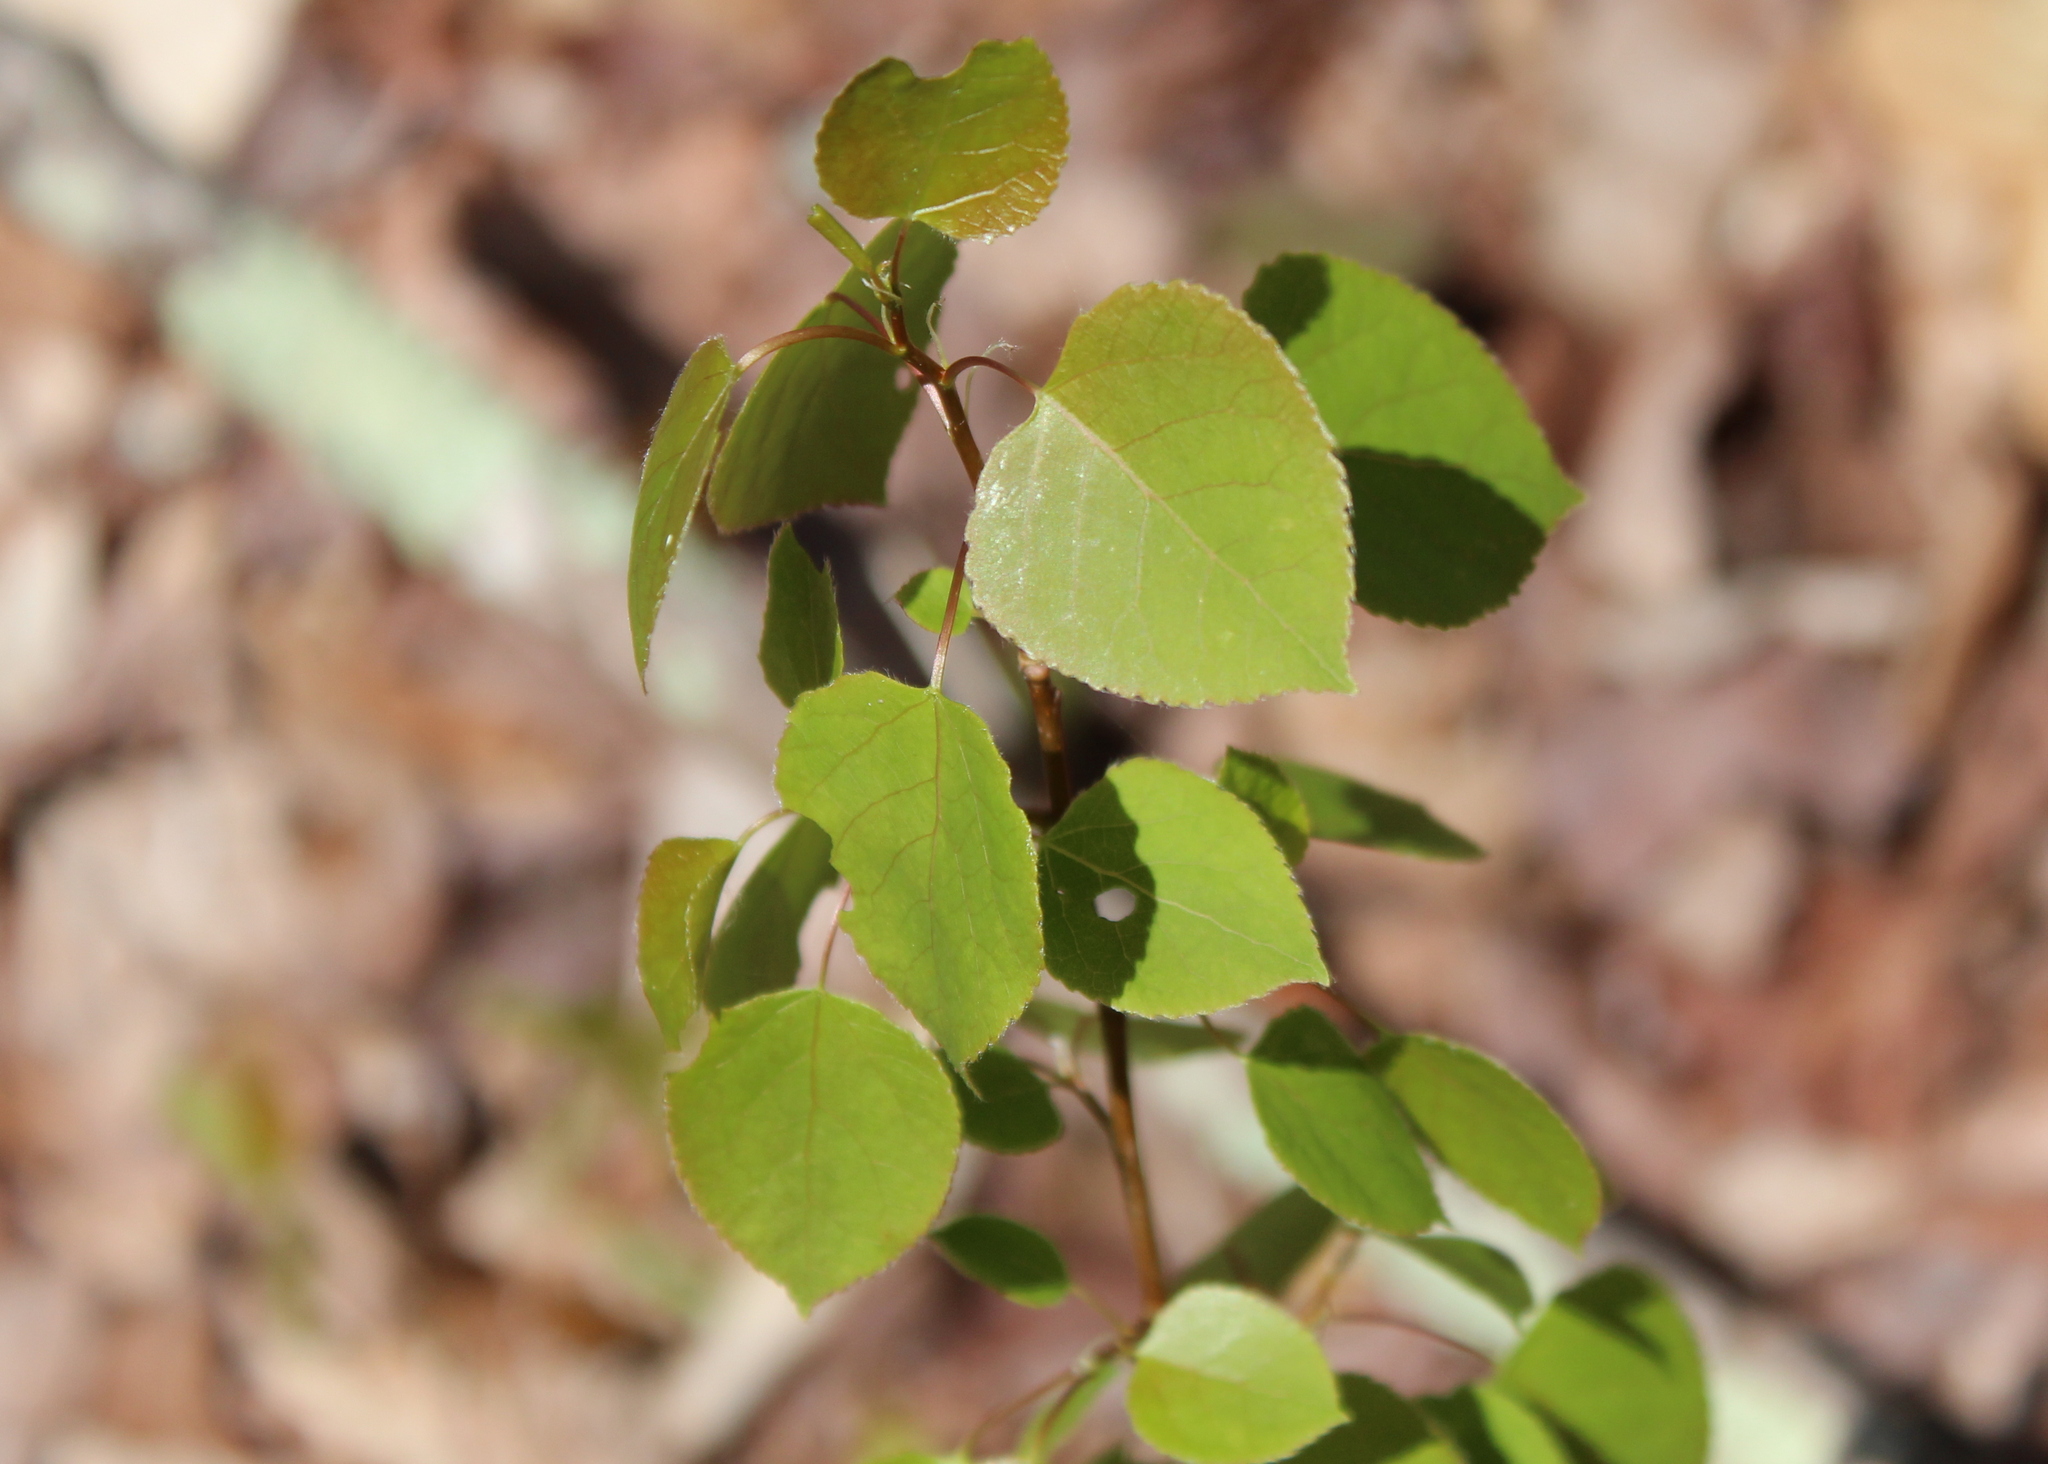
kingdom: Plantae
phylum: Tracheophyta
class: Magnoliopsida
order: Malpighiales
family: Salicaceae
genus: Populus
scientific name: Populus tremuloides
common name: Quaking aspen
